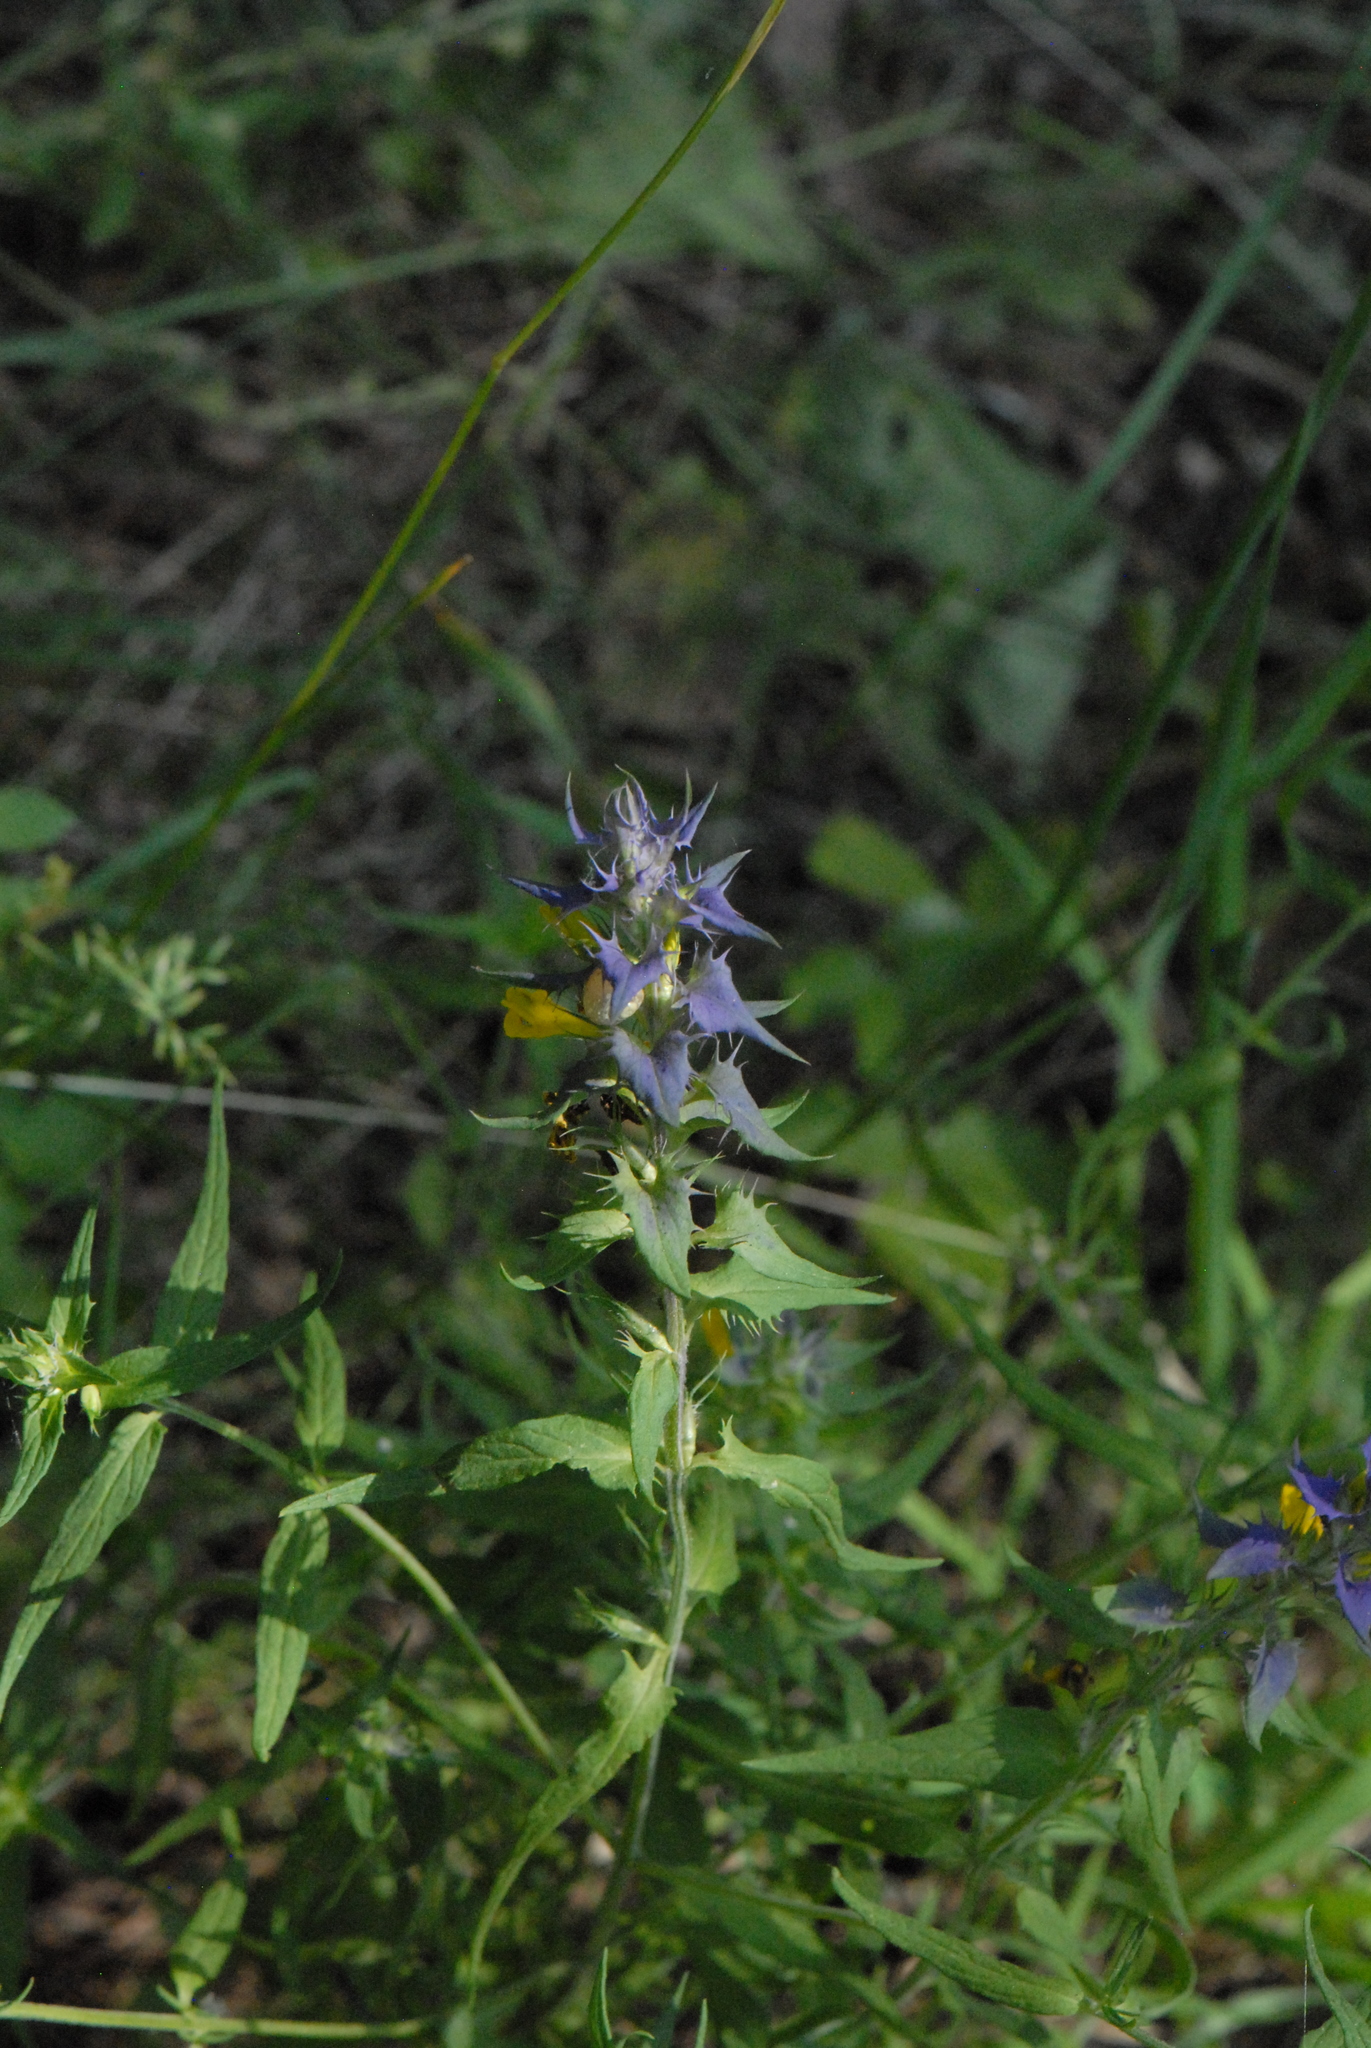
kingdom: Plantae
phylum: Tracheophyta
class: Magnoliopsida
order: Lamiales
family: Orobanchaceae
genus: Melampyrum
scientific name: Melampyrum nemorosum
